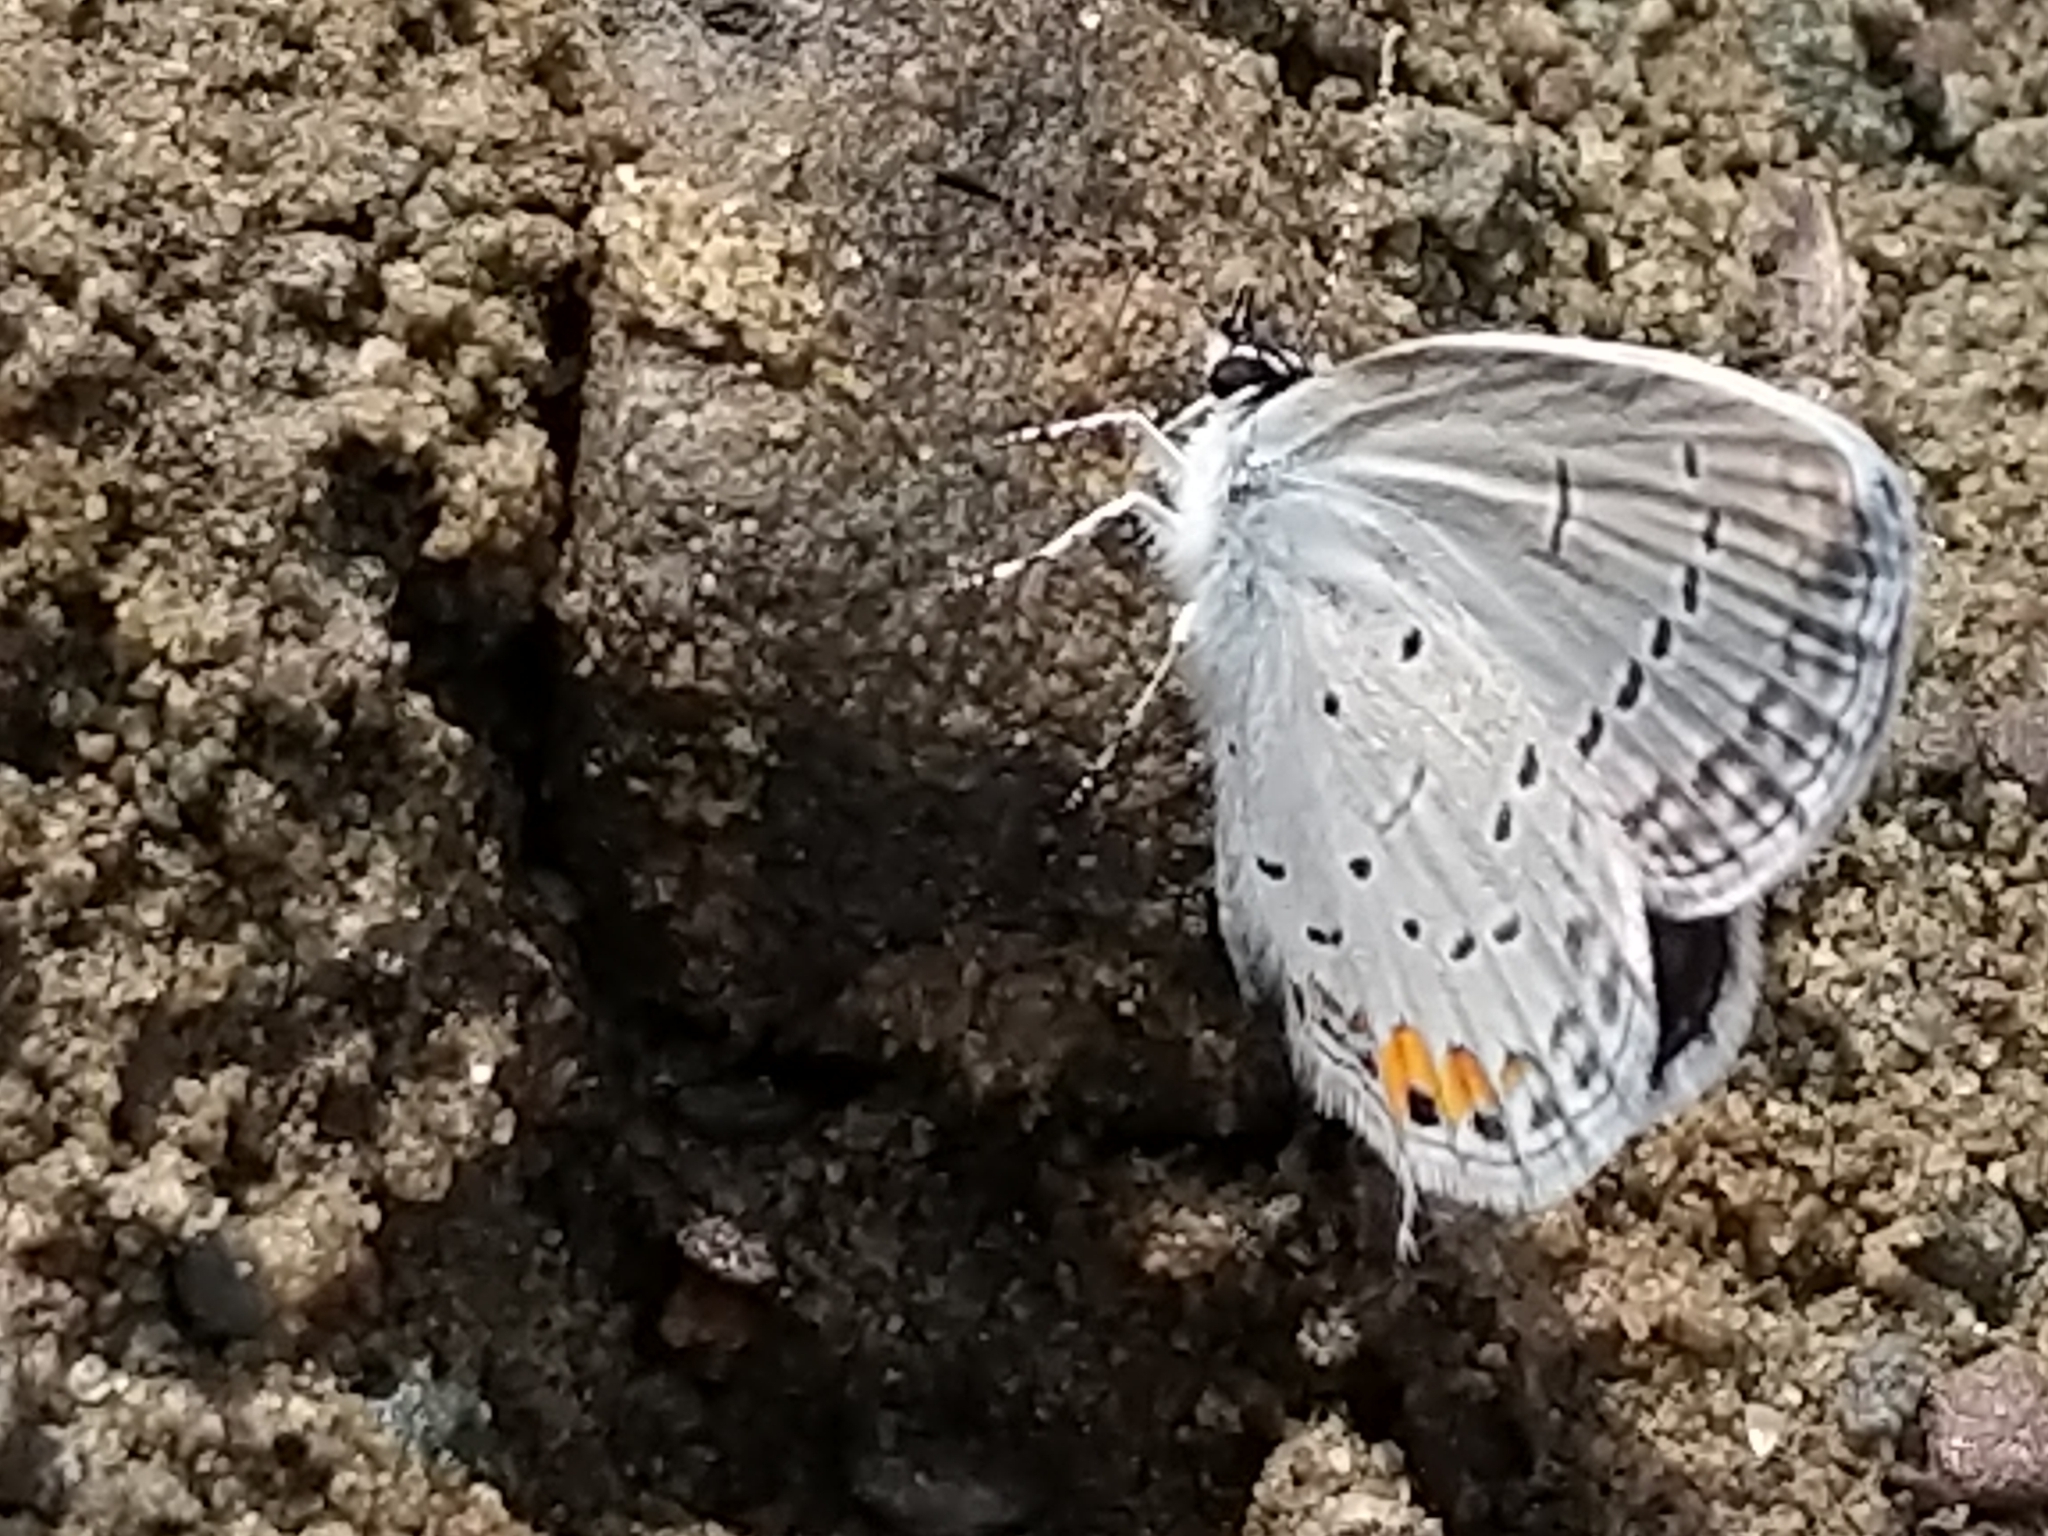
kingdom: Animalia
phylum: Arthropoda
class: Insecta
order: Lepidoptera
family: Lycaenidae
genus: Elkalyce
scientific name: Elkalyce comyntas
